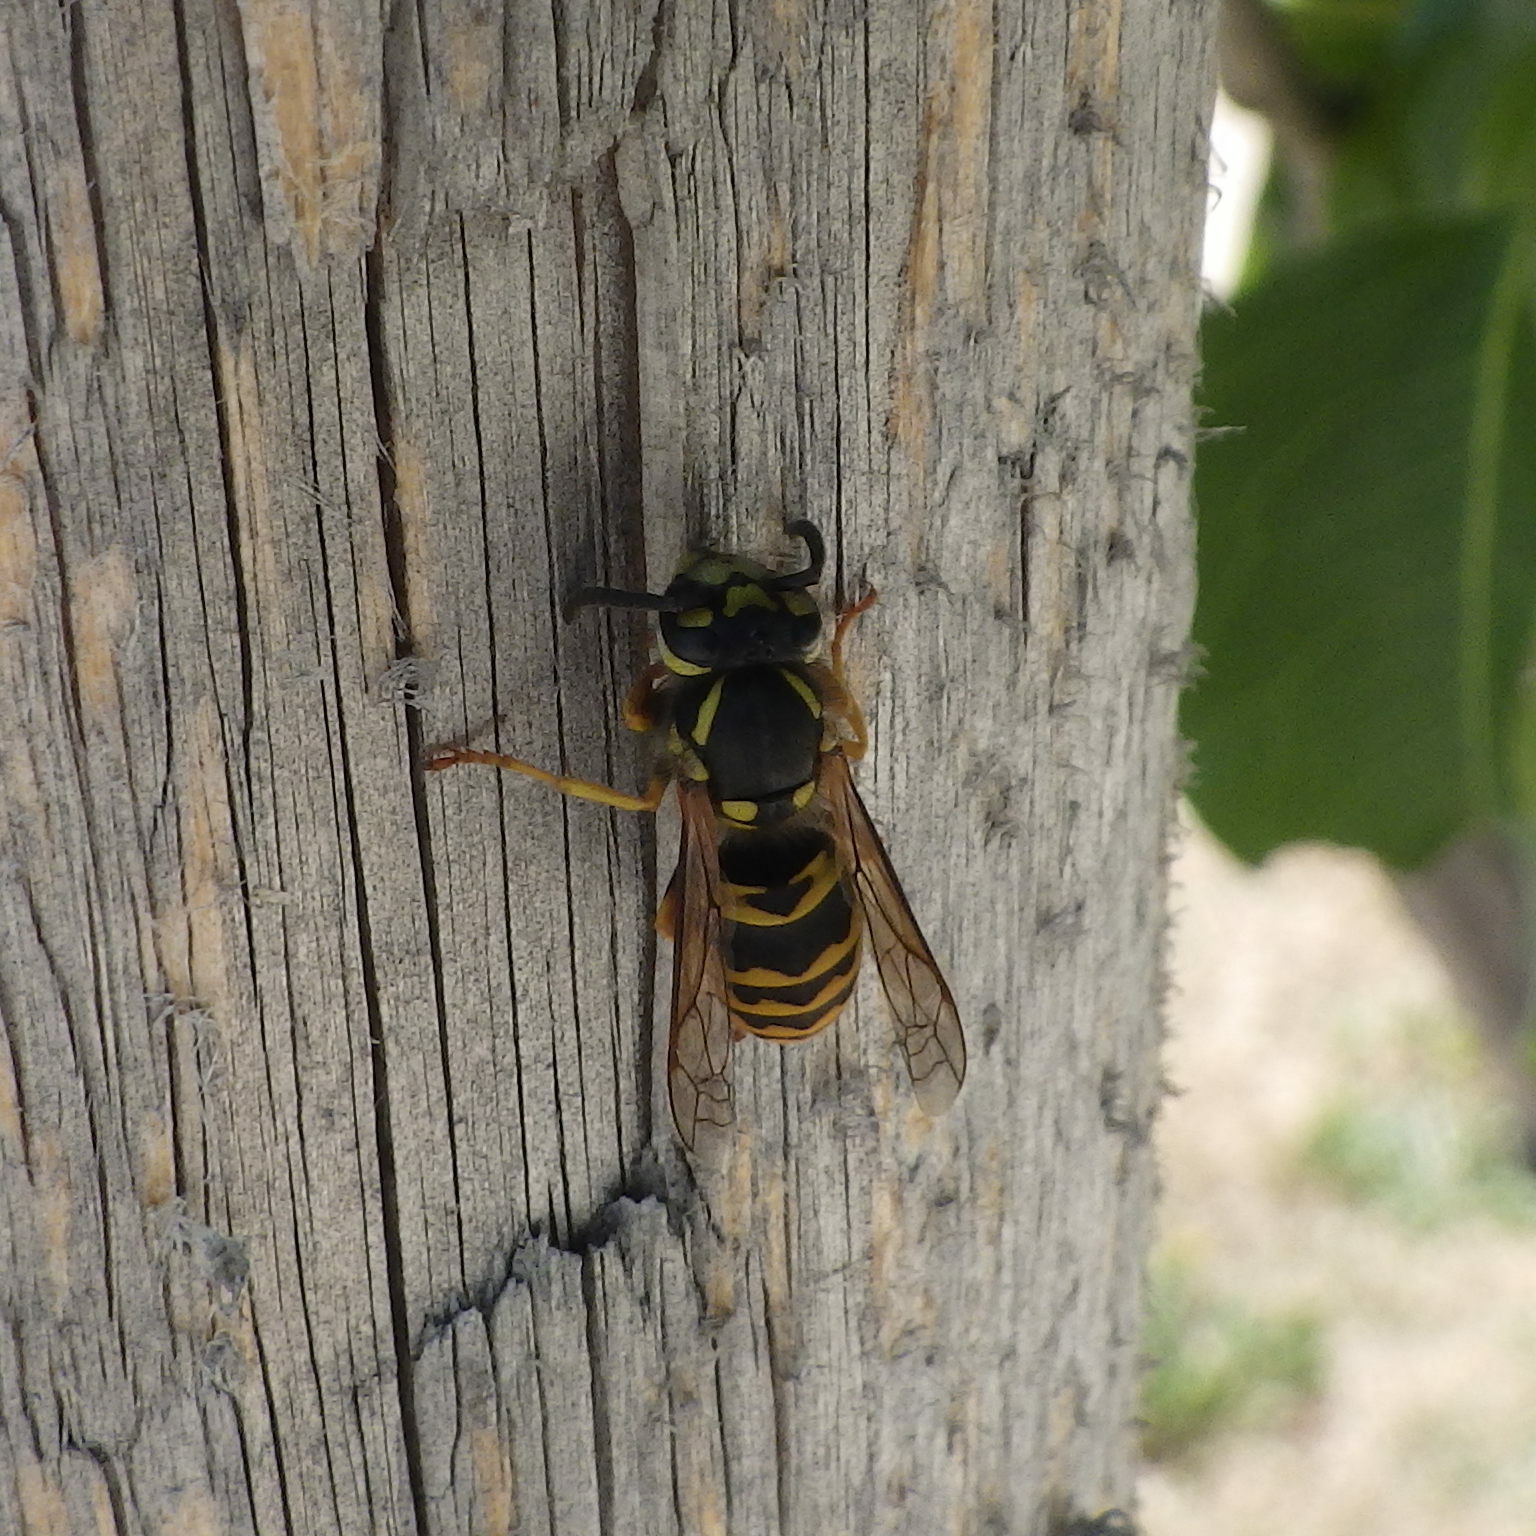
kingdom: Animalia
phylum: Arthropoda
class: Insecta
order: Hymenoptera
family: Vespidae
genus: Vespula
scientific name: Vespula germanica
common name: German wasp
